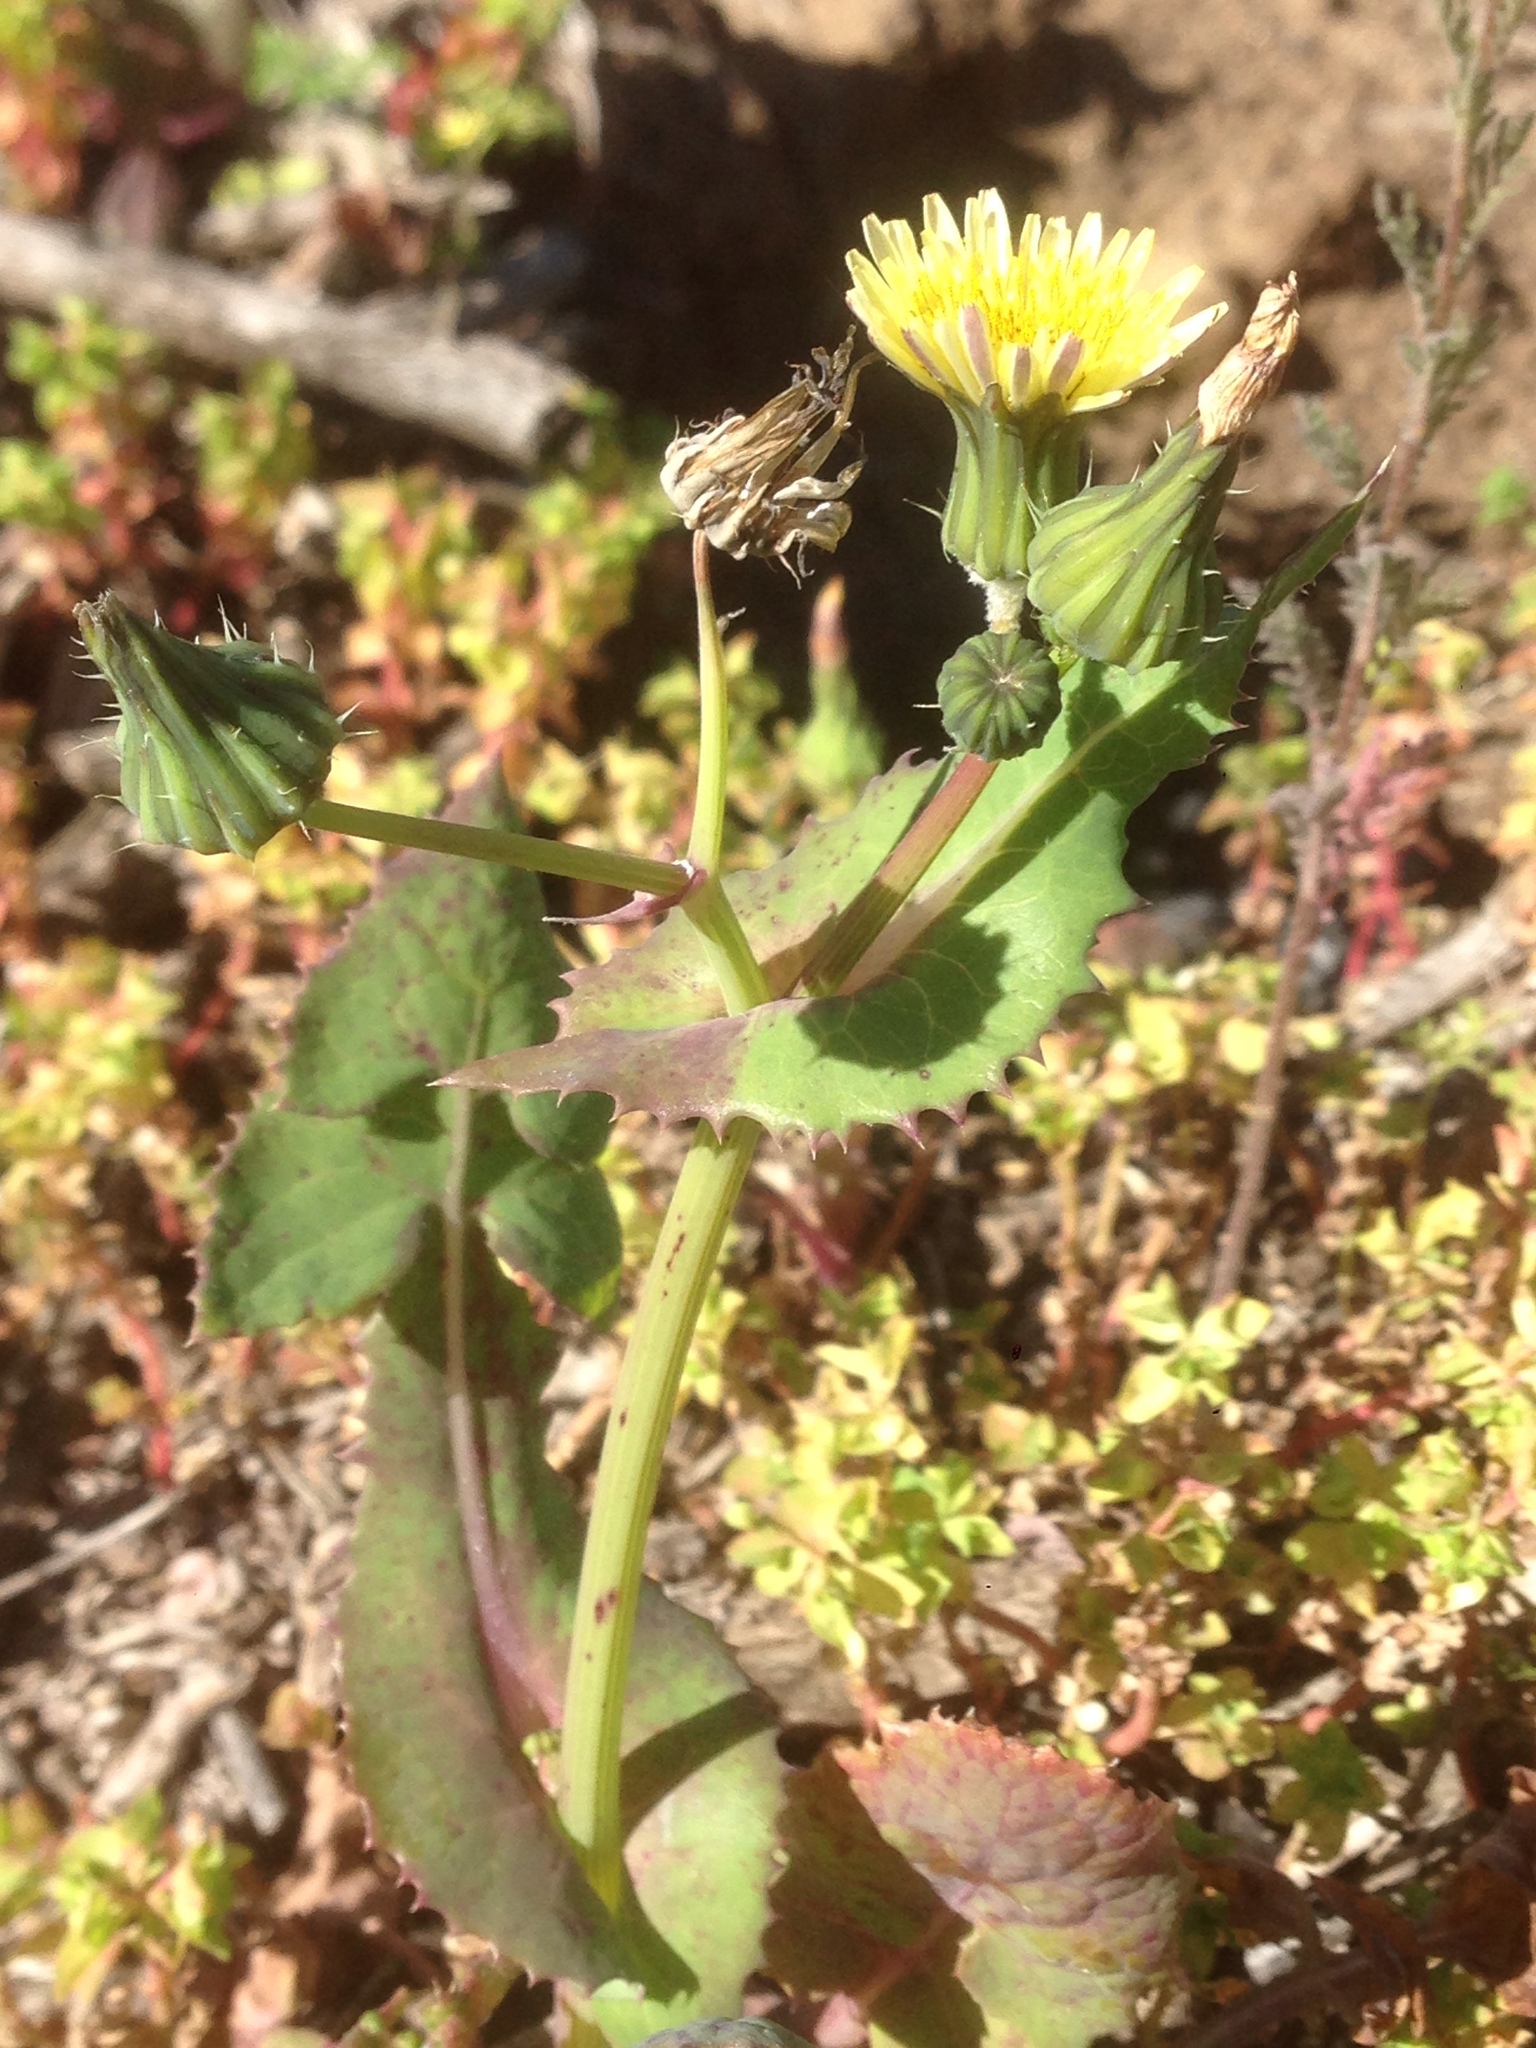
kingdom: Plantae
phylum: Tracheophyta
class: Magnoliopsida
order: Asterales
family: Asteraceae
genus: Sonchus
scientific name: Sonchus oleraceus
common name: Common sowthistle
